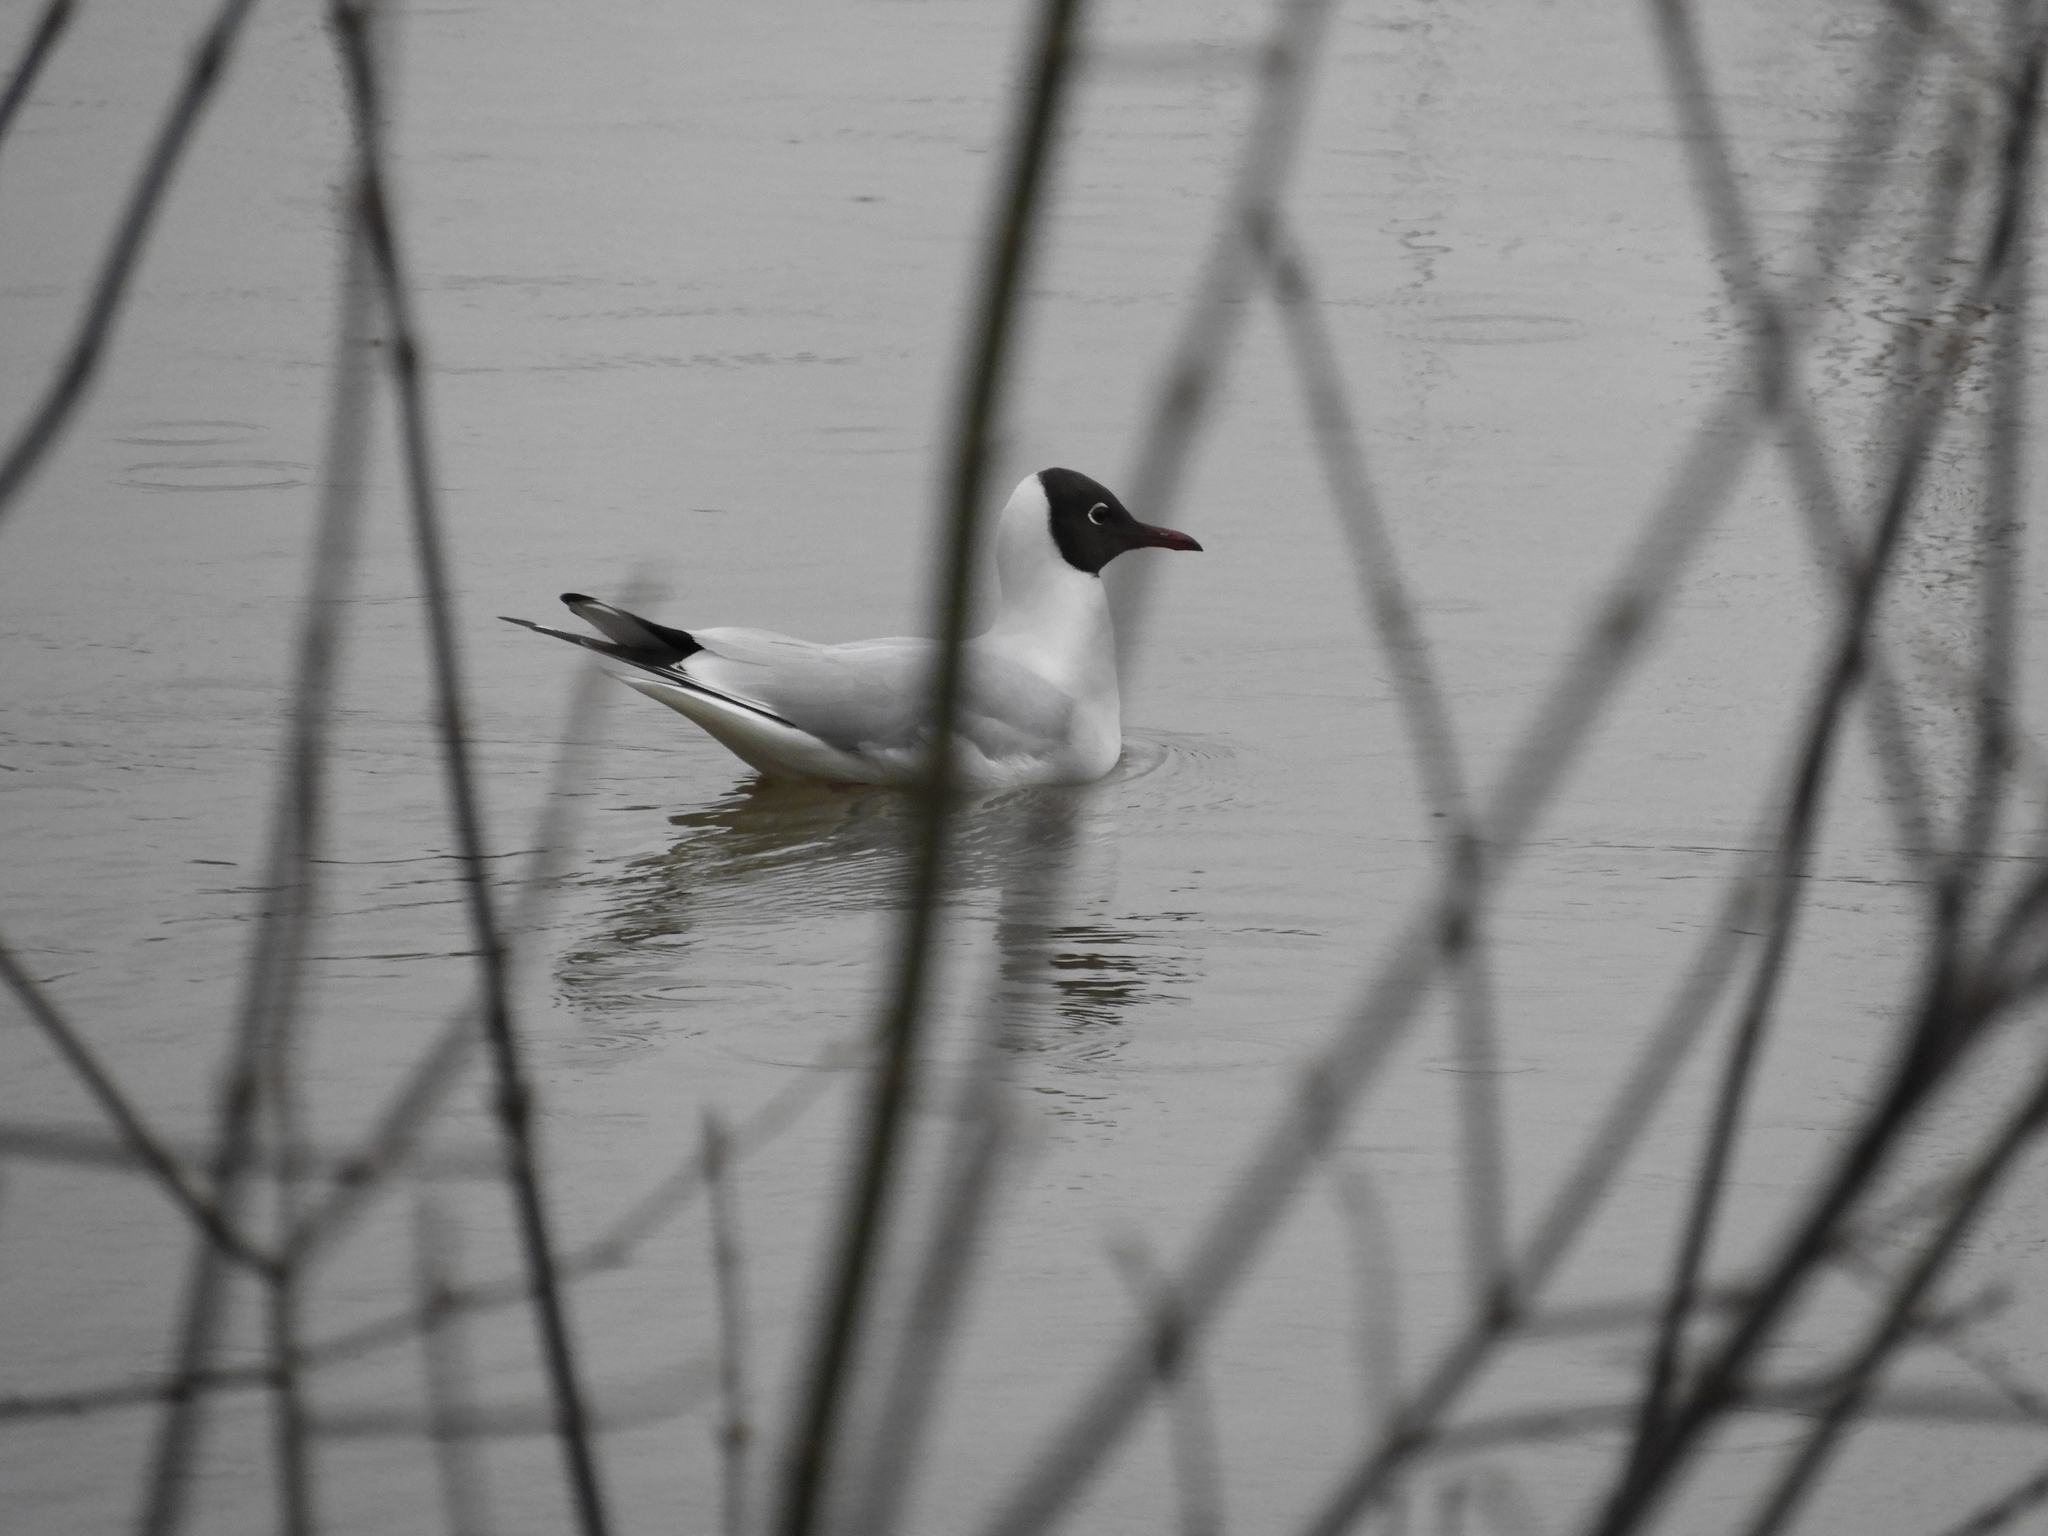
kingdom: Animalia
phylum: Chordata
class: Aves
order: Charadriiformes
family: Laridae
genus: Chroicocephalus
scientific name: Chroicocephalus ridibundus
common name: Black-headed gull
